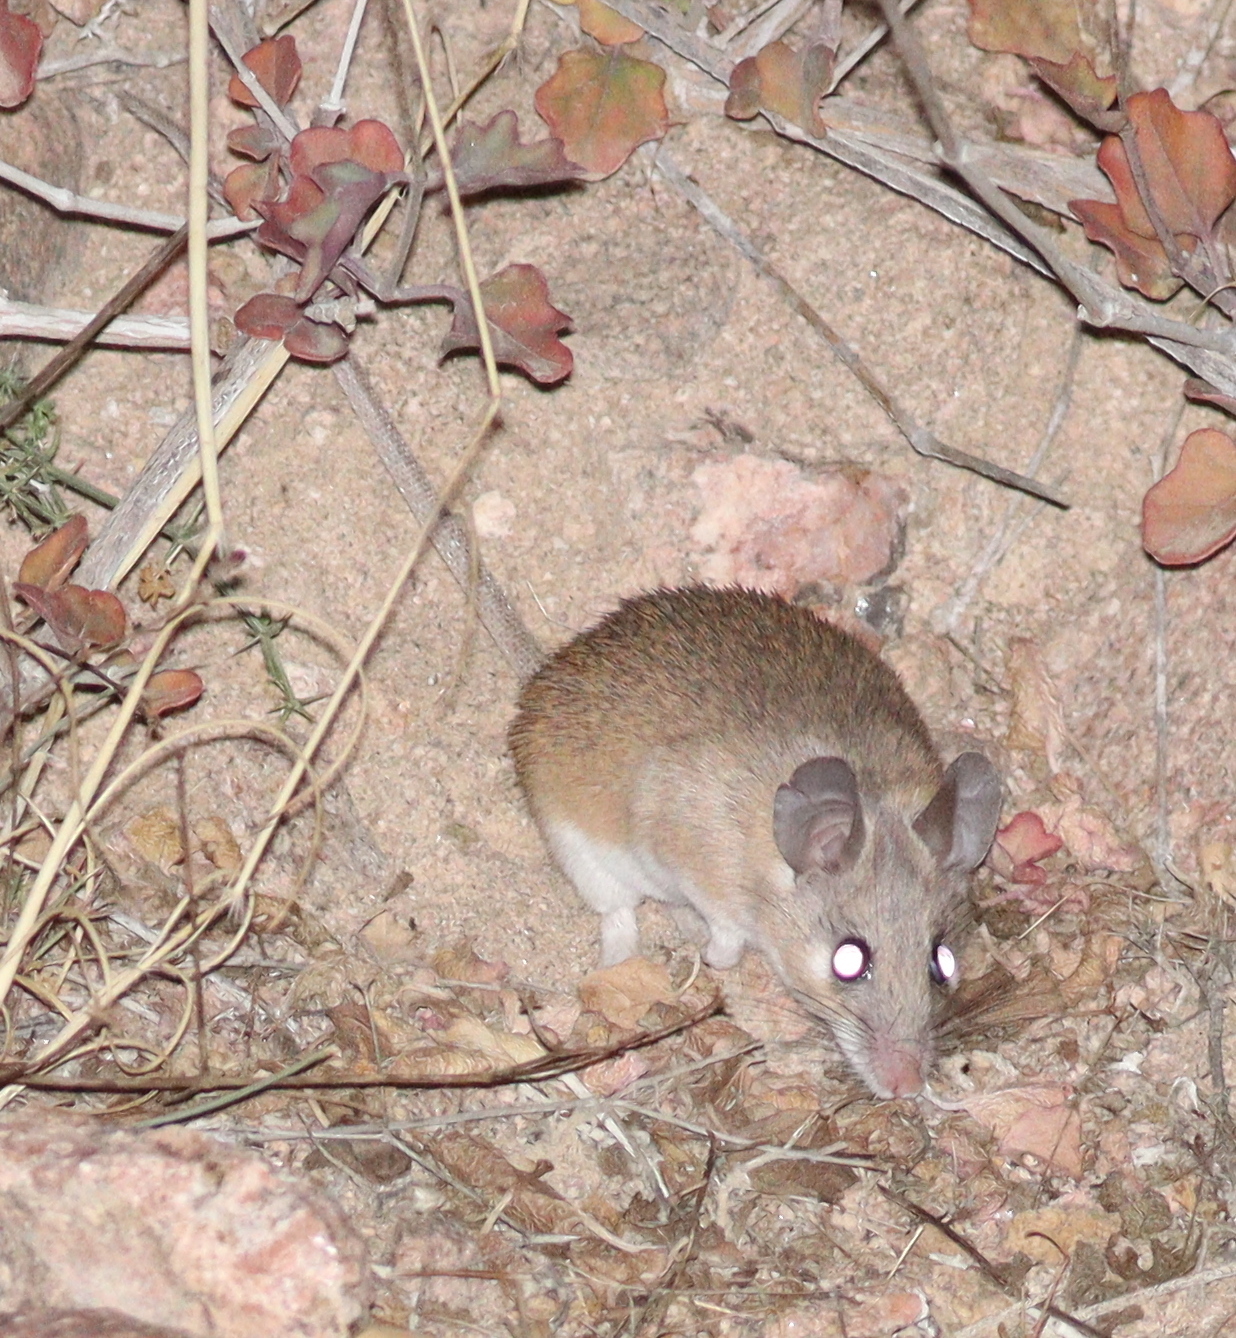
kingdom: Animalia
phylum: Chordata
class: Mammalia
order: Rodentia
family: Muridae
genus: Acomys
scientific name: Acomys dimidiatus
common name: Eastern spiny mouse
